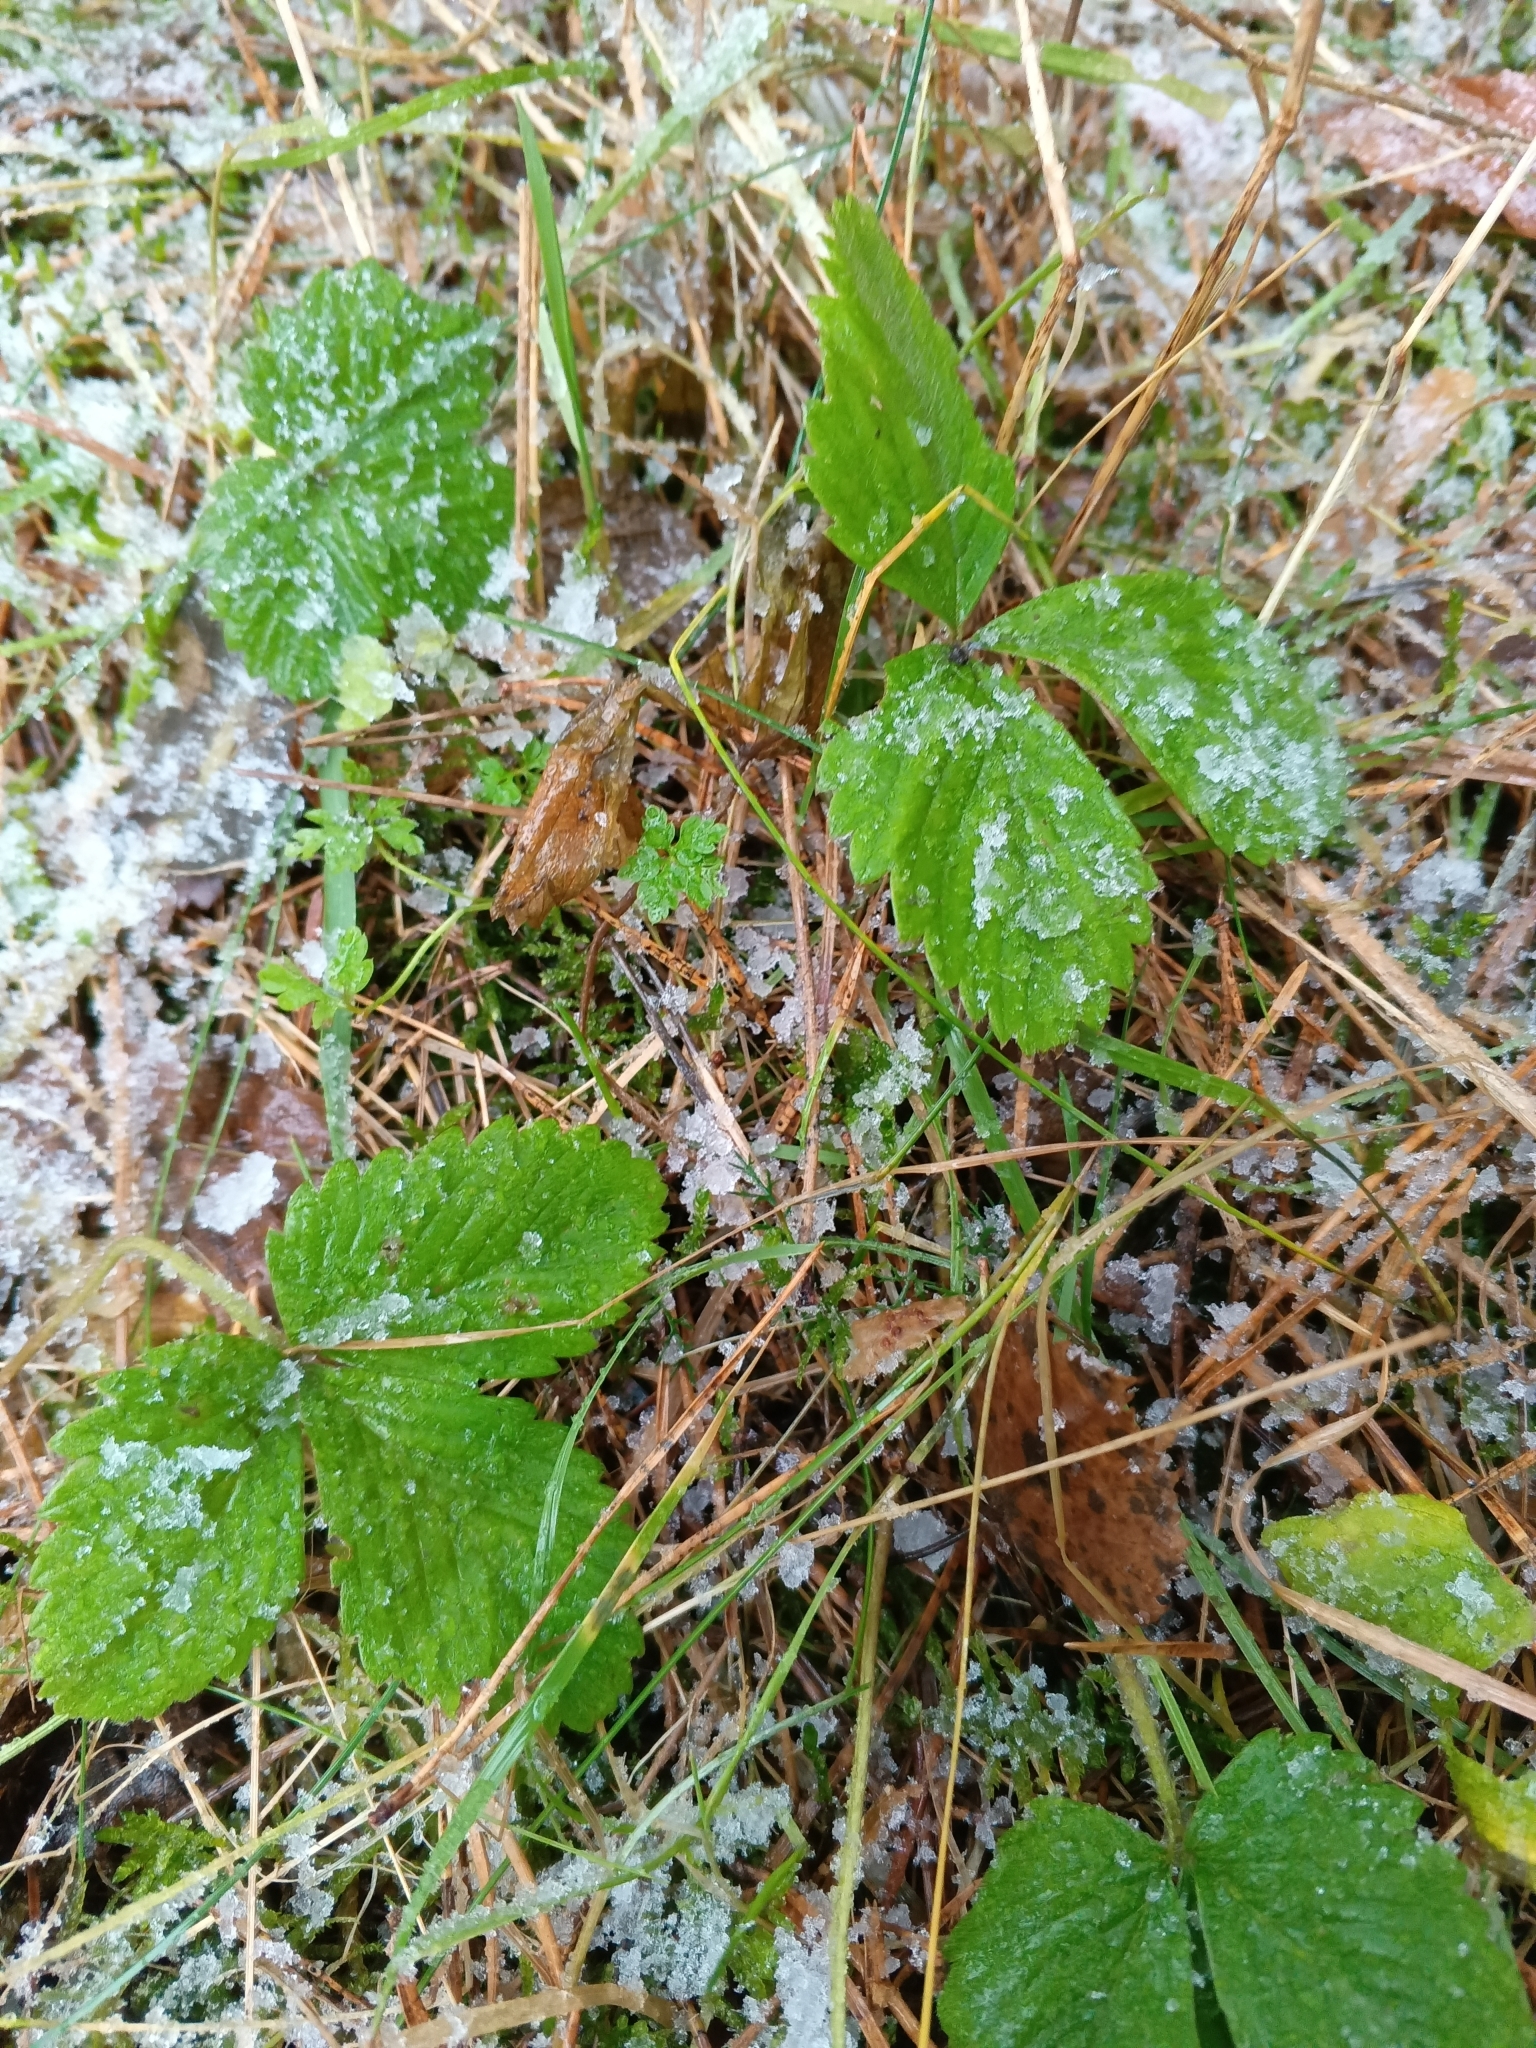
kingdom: Plantae
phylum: Tracheophyta
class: Magnoliopsida
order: Rosales
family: Rosaceae
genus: Fragaria
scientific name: Fragaria vesca
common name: Wild strawberry
